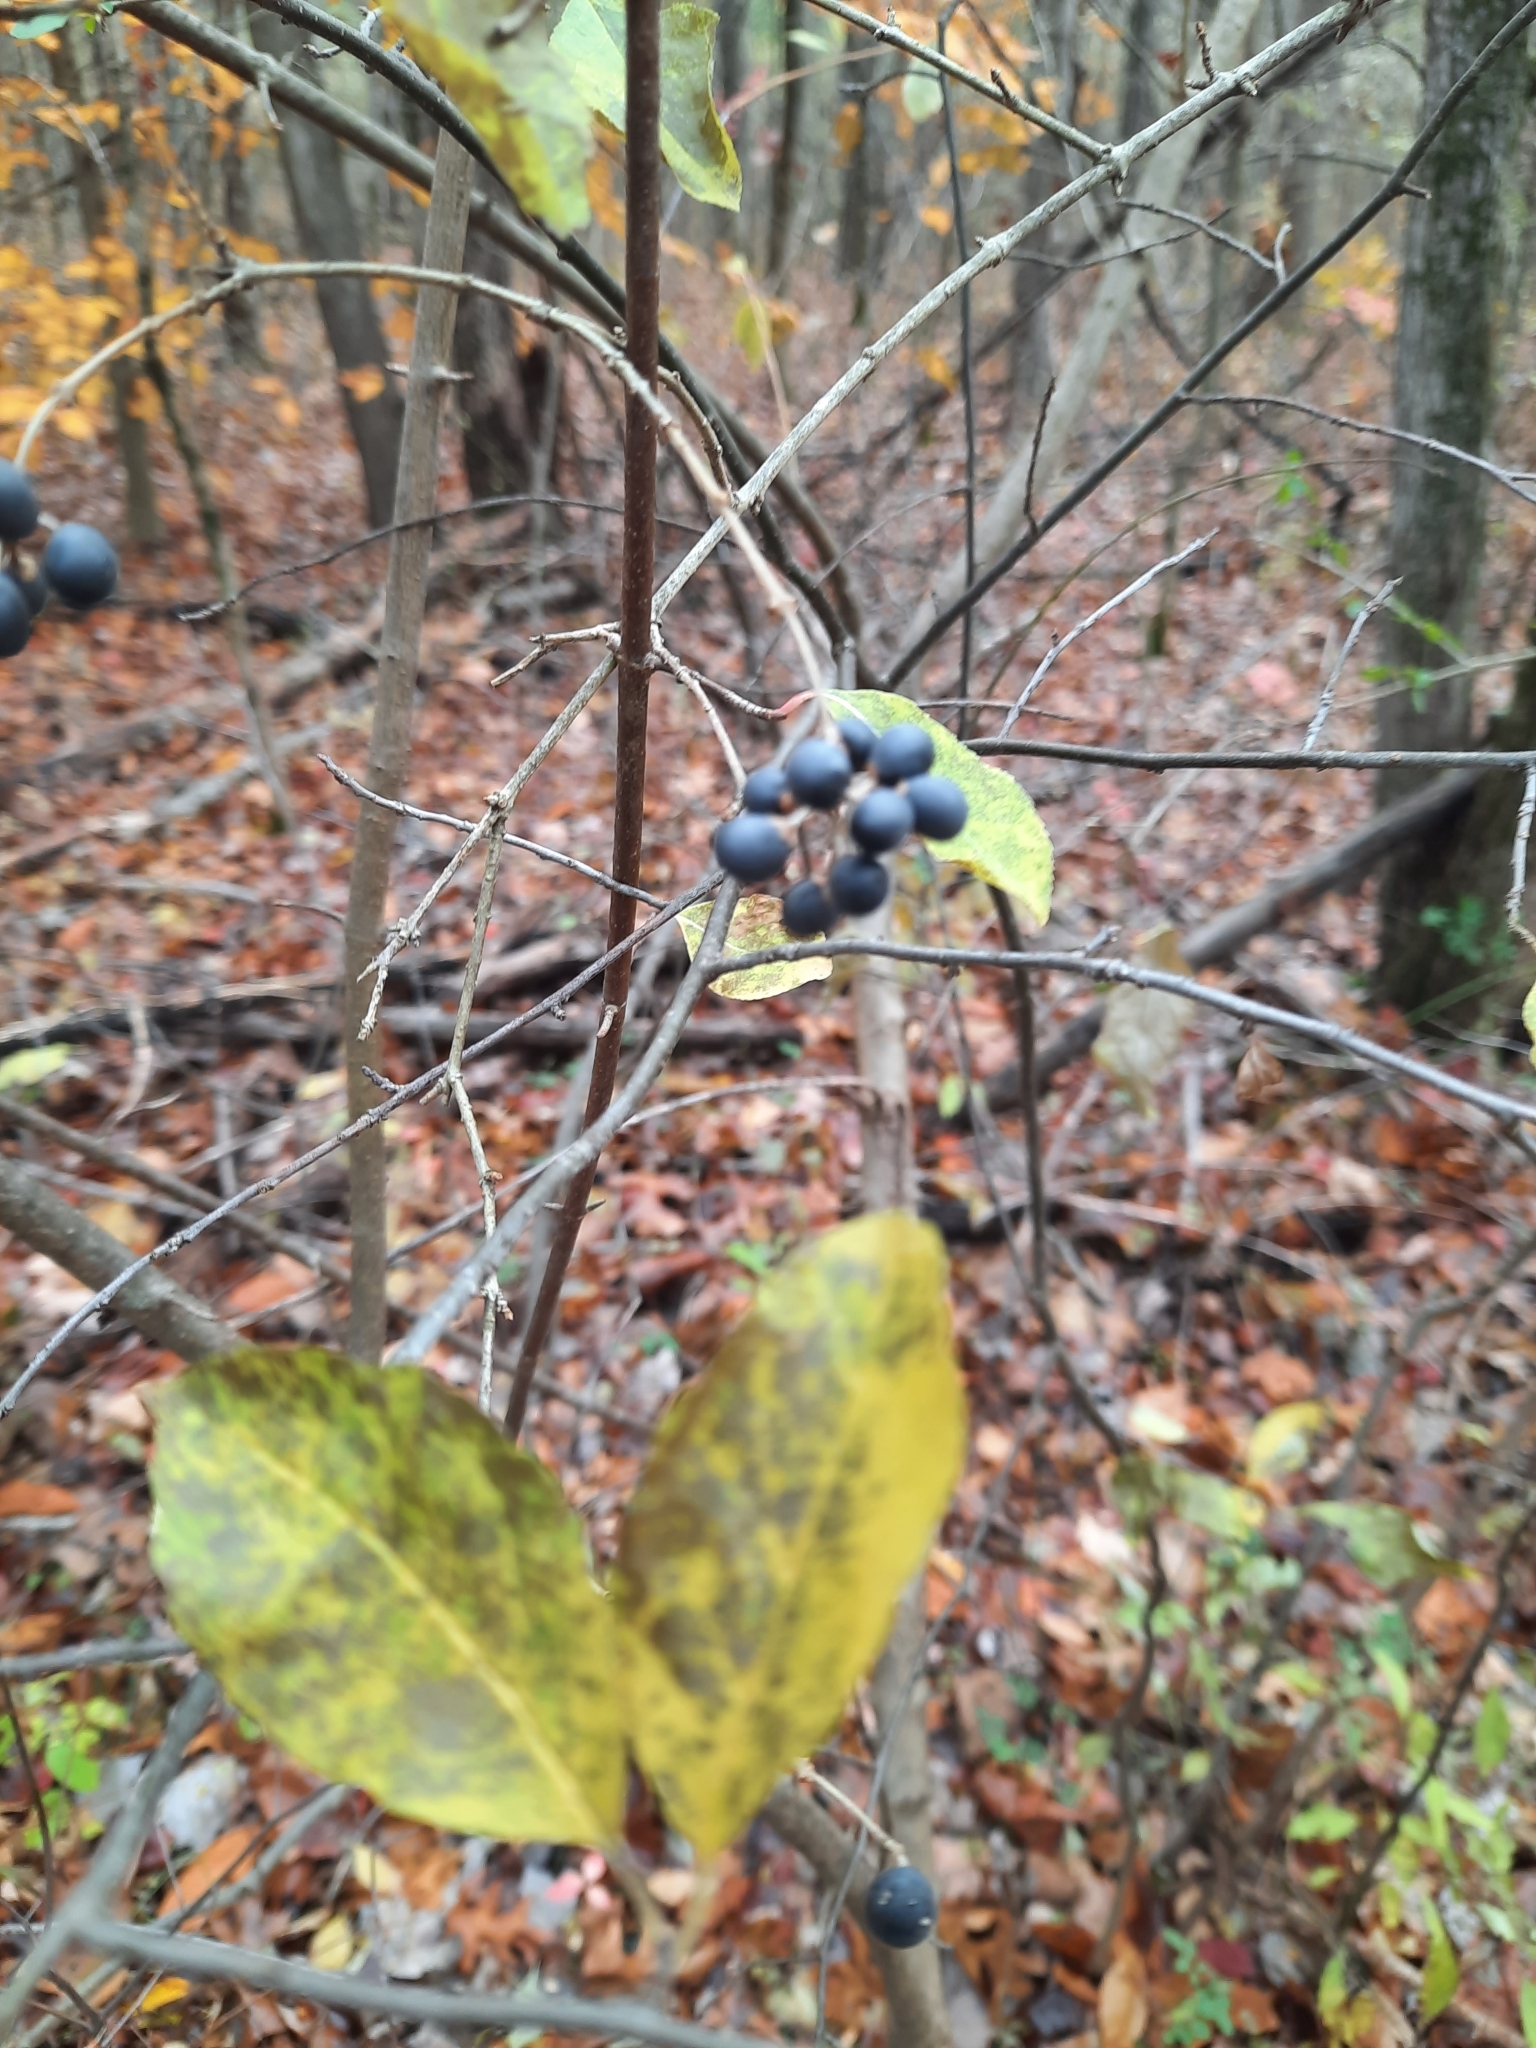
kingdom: Plantae
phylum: Tracheophyta
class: Magnoliopsida
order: Lamiales
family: Oleaceae
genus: Ligustrum
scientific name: Ligustrum obtusifolium
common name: Border privet
